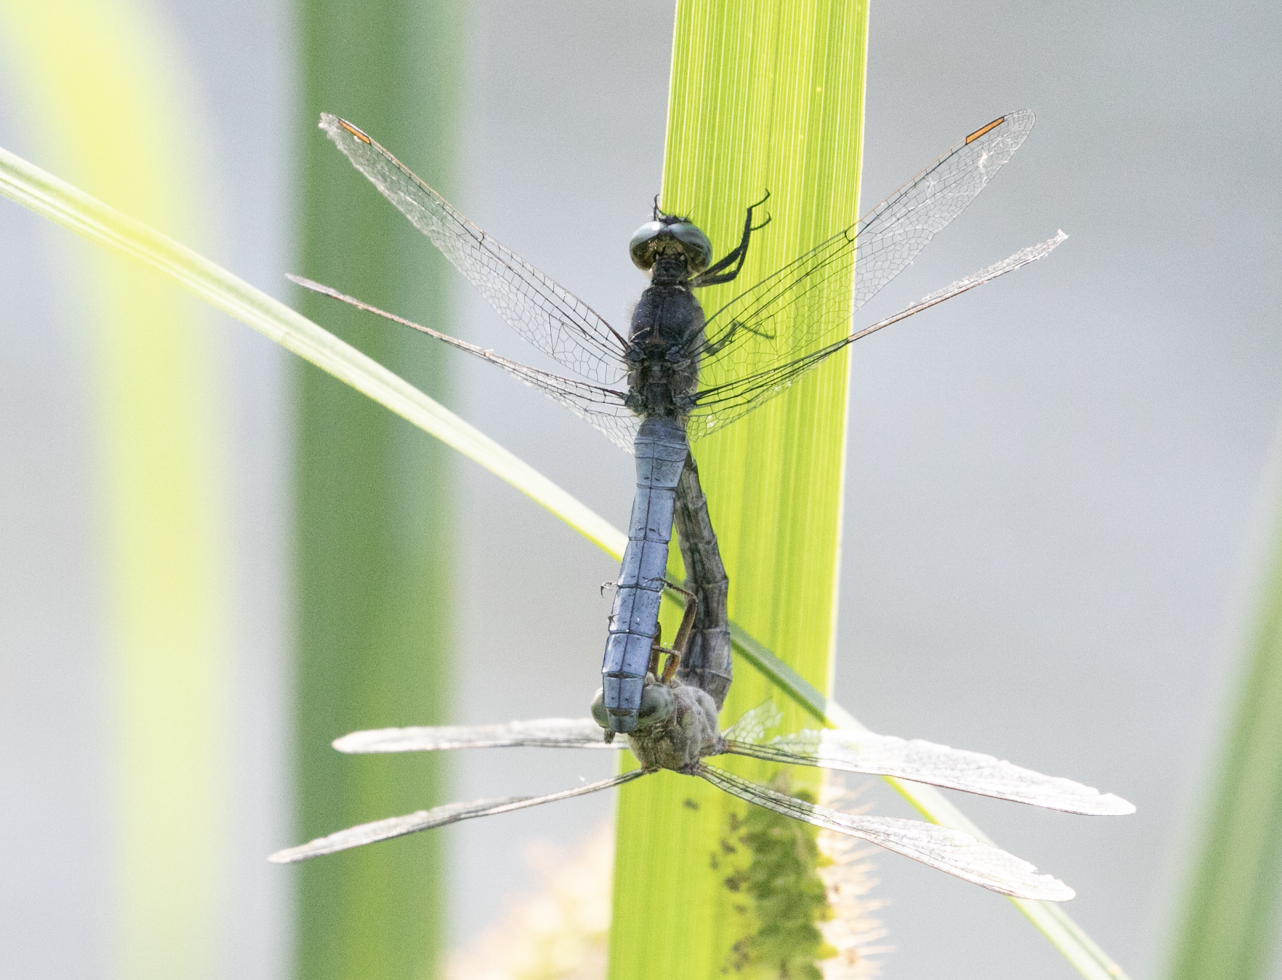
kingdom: Animalia
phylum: Arthropoda
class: Insecta
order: Odonata
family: Libellulidae
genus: Orthetrum
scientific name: Orthetrum coerulescens
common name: Keeled skimmer
